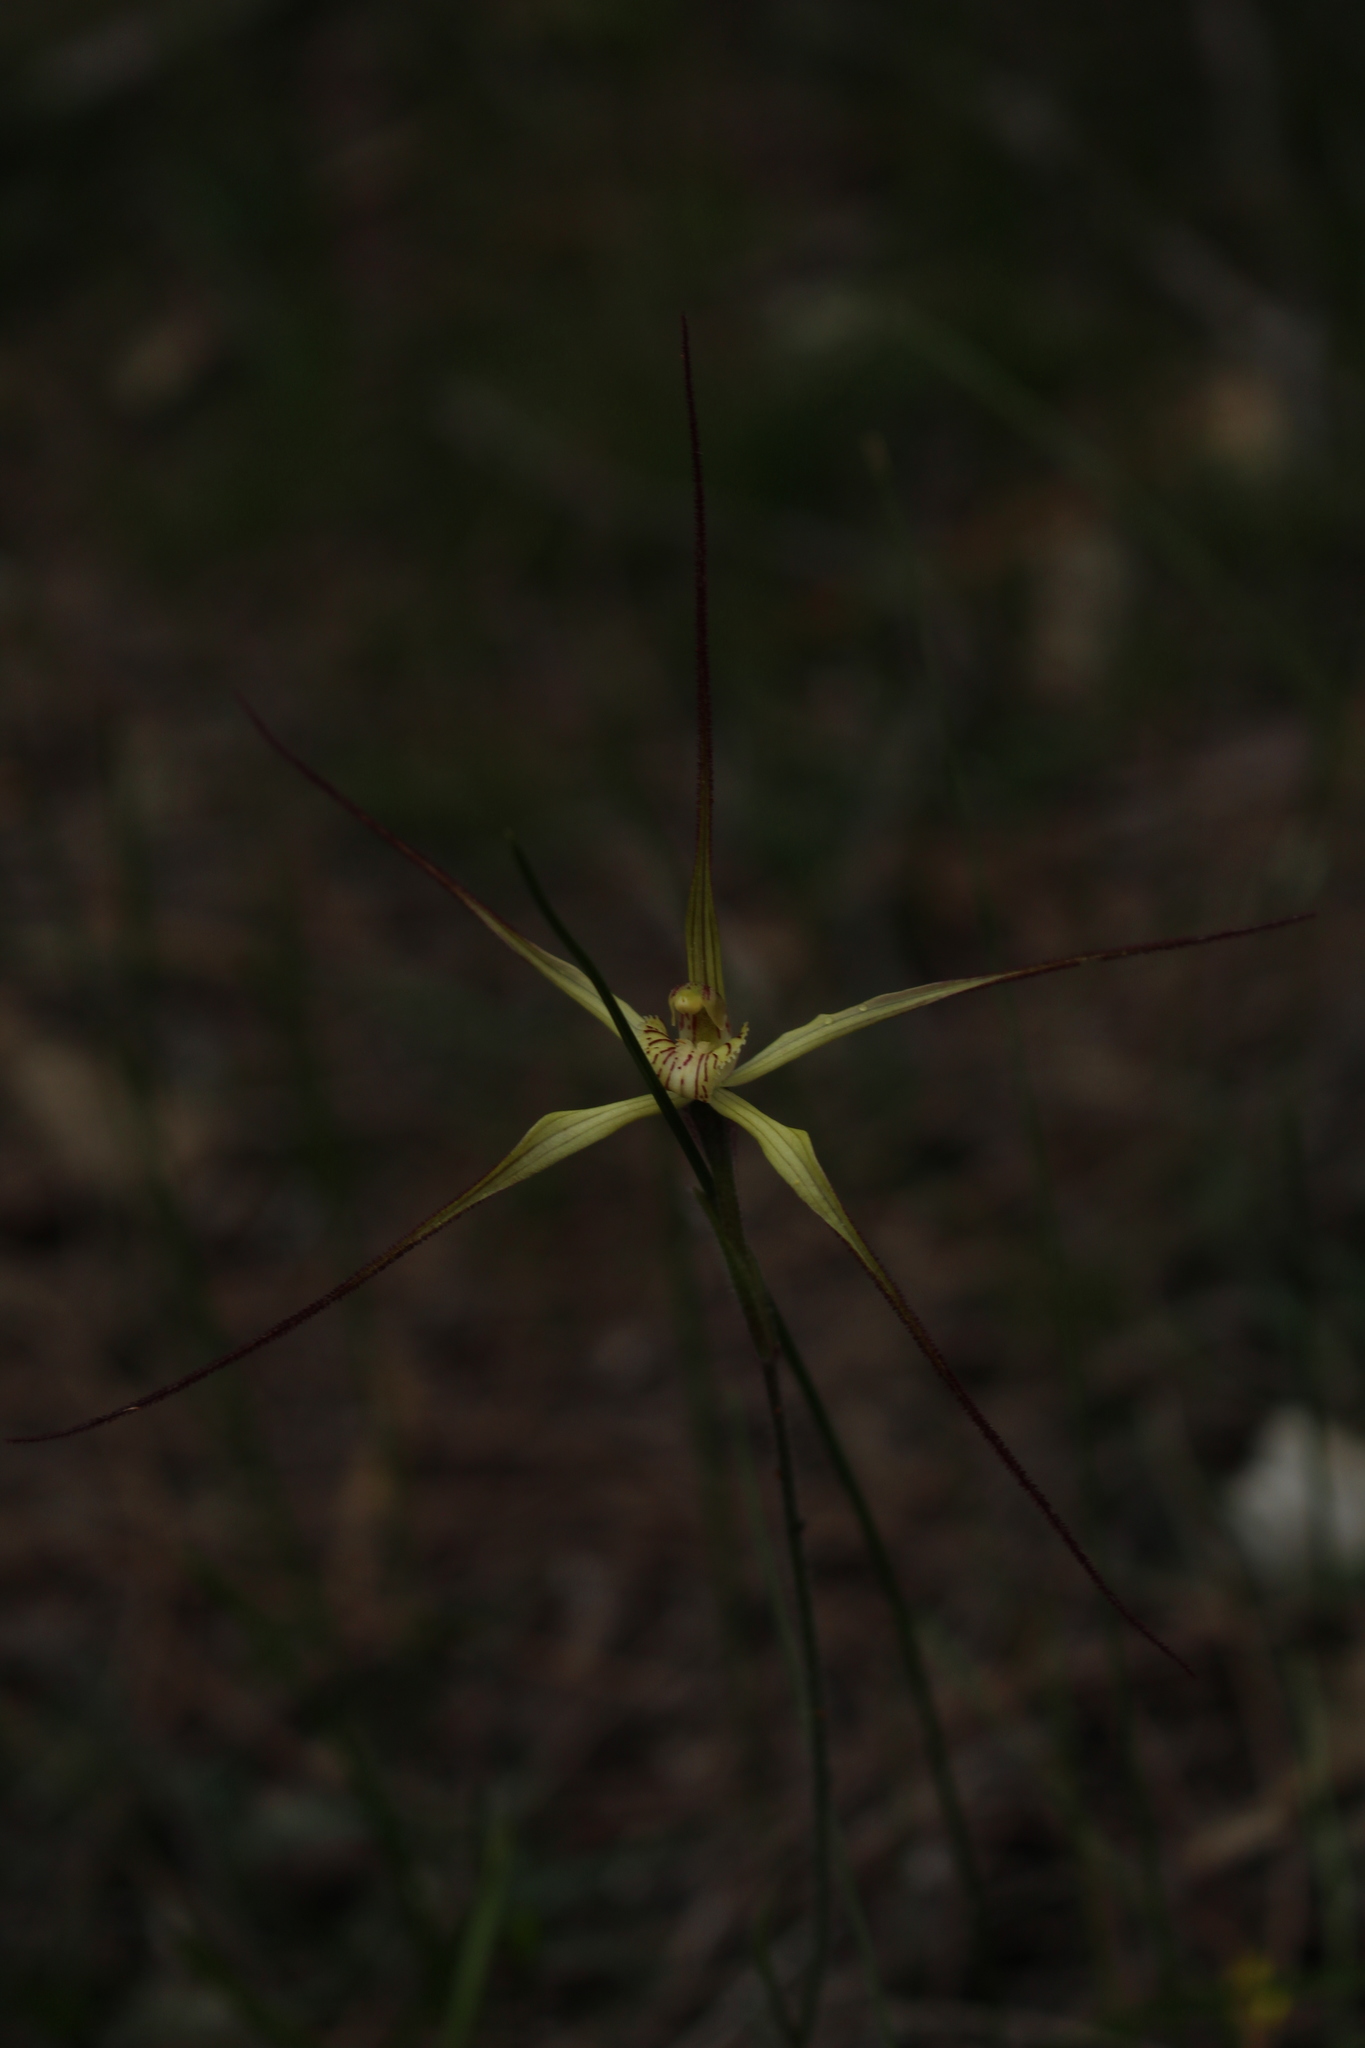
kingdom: Plantae
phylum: Tracheophyta
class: Liliopsida
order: Asparagales
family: Orchidaceae
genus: Caladenia
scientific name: Caladenia xantha
